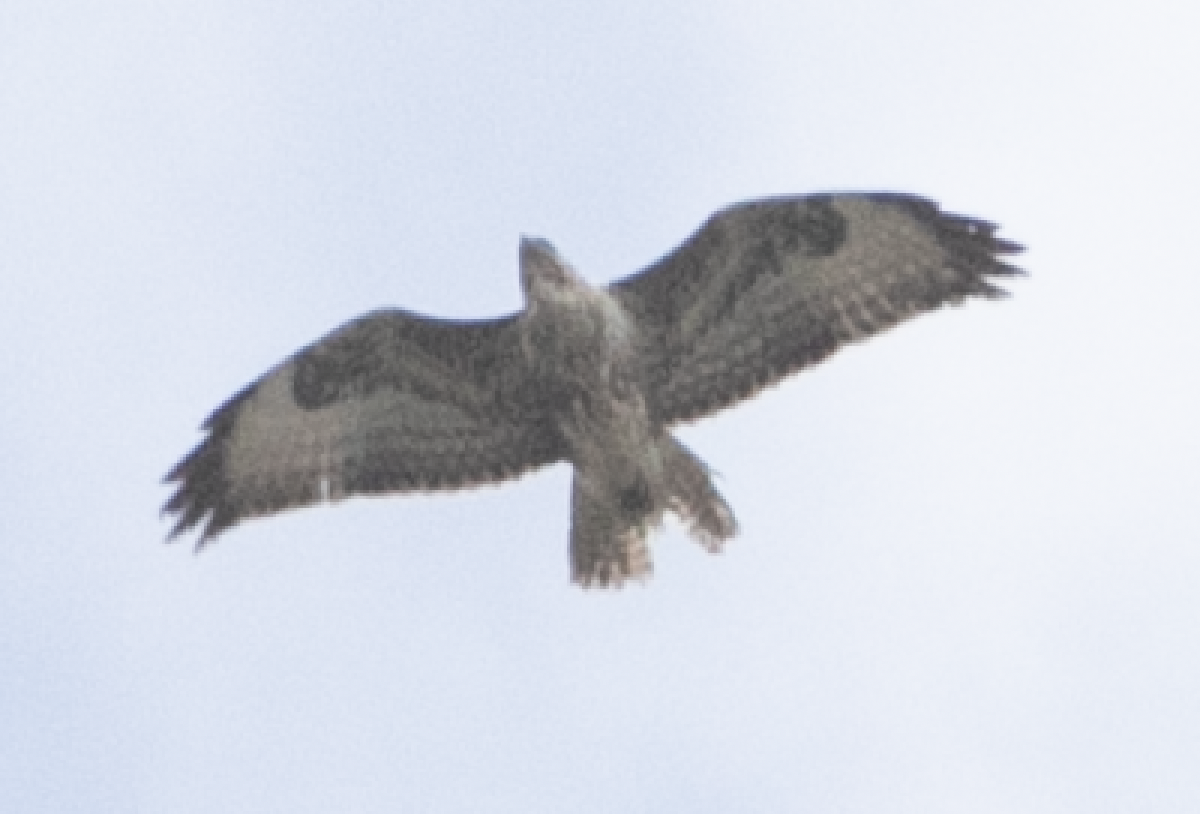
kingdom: Animalia
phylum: Chordata
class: Aves
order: Accipitriformes
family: Accipitridae
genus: Buteo
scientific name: Buteo buteo
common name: Common buzzard
